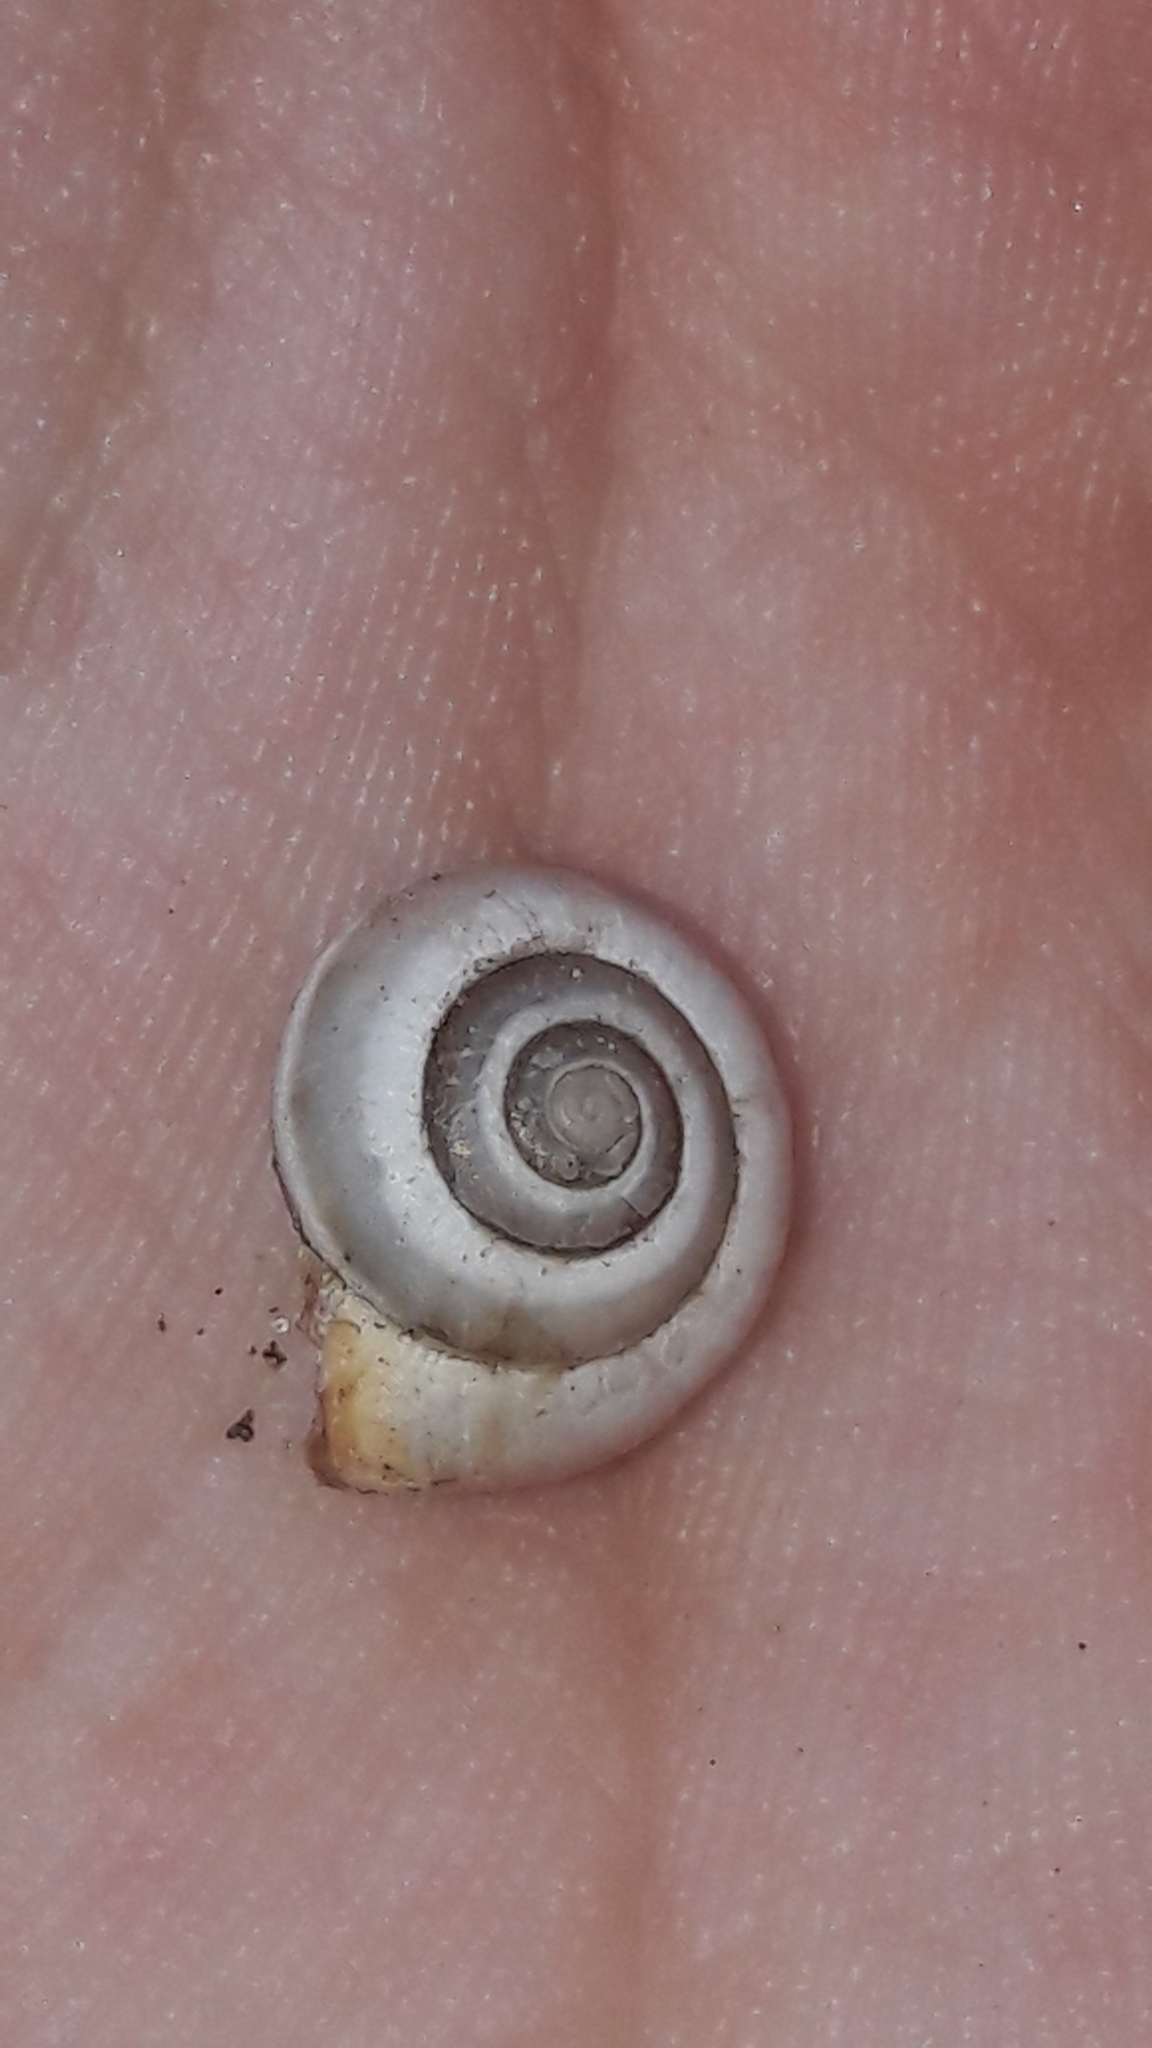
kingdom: Animalia
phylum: Mollusca
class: Gastropoda
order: Stylommatophora
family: Hygromiidae
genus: Monacha
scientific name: Monacha syriaca
